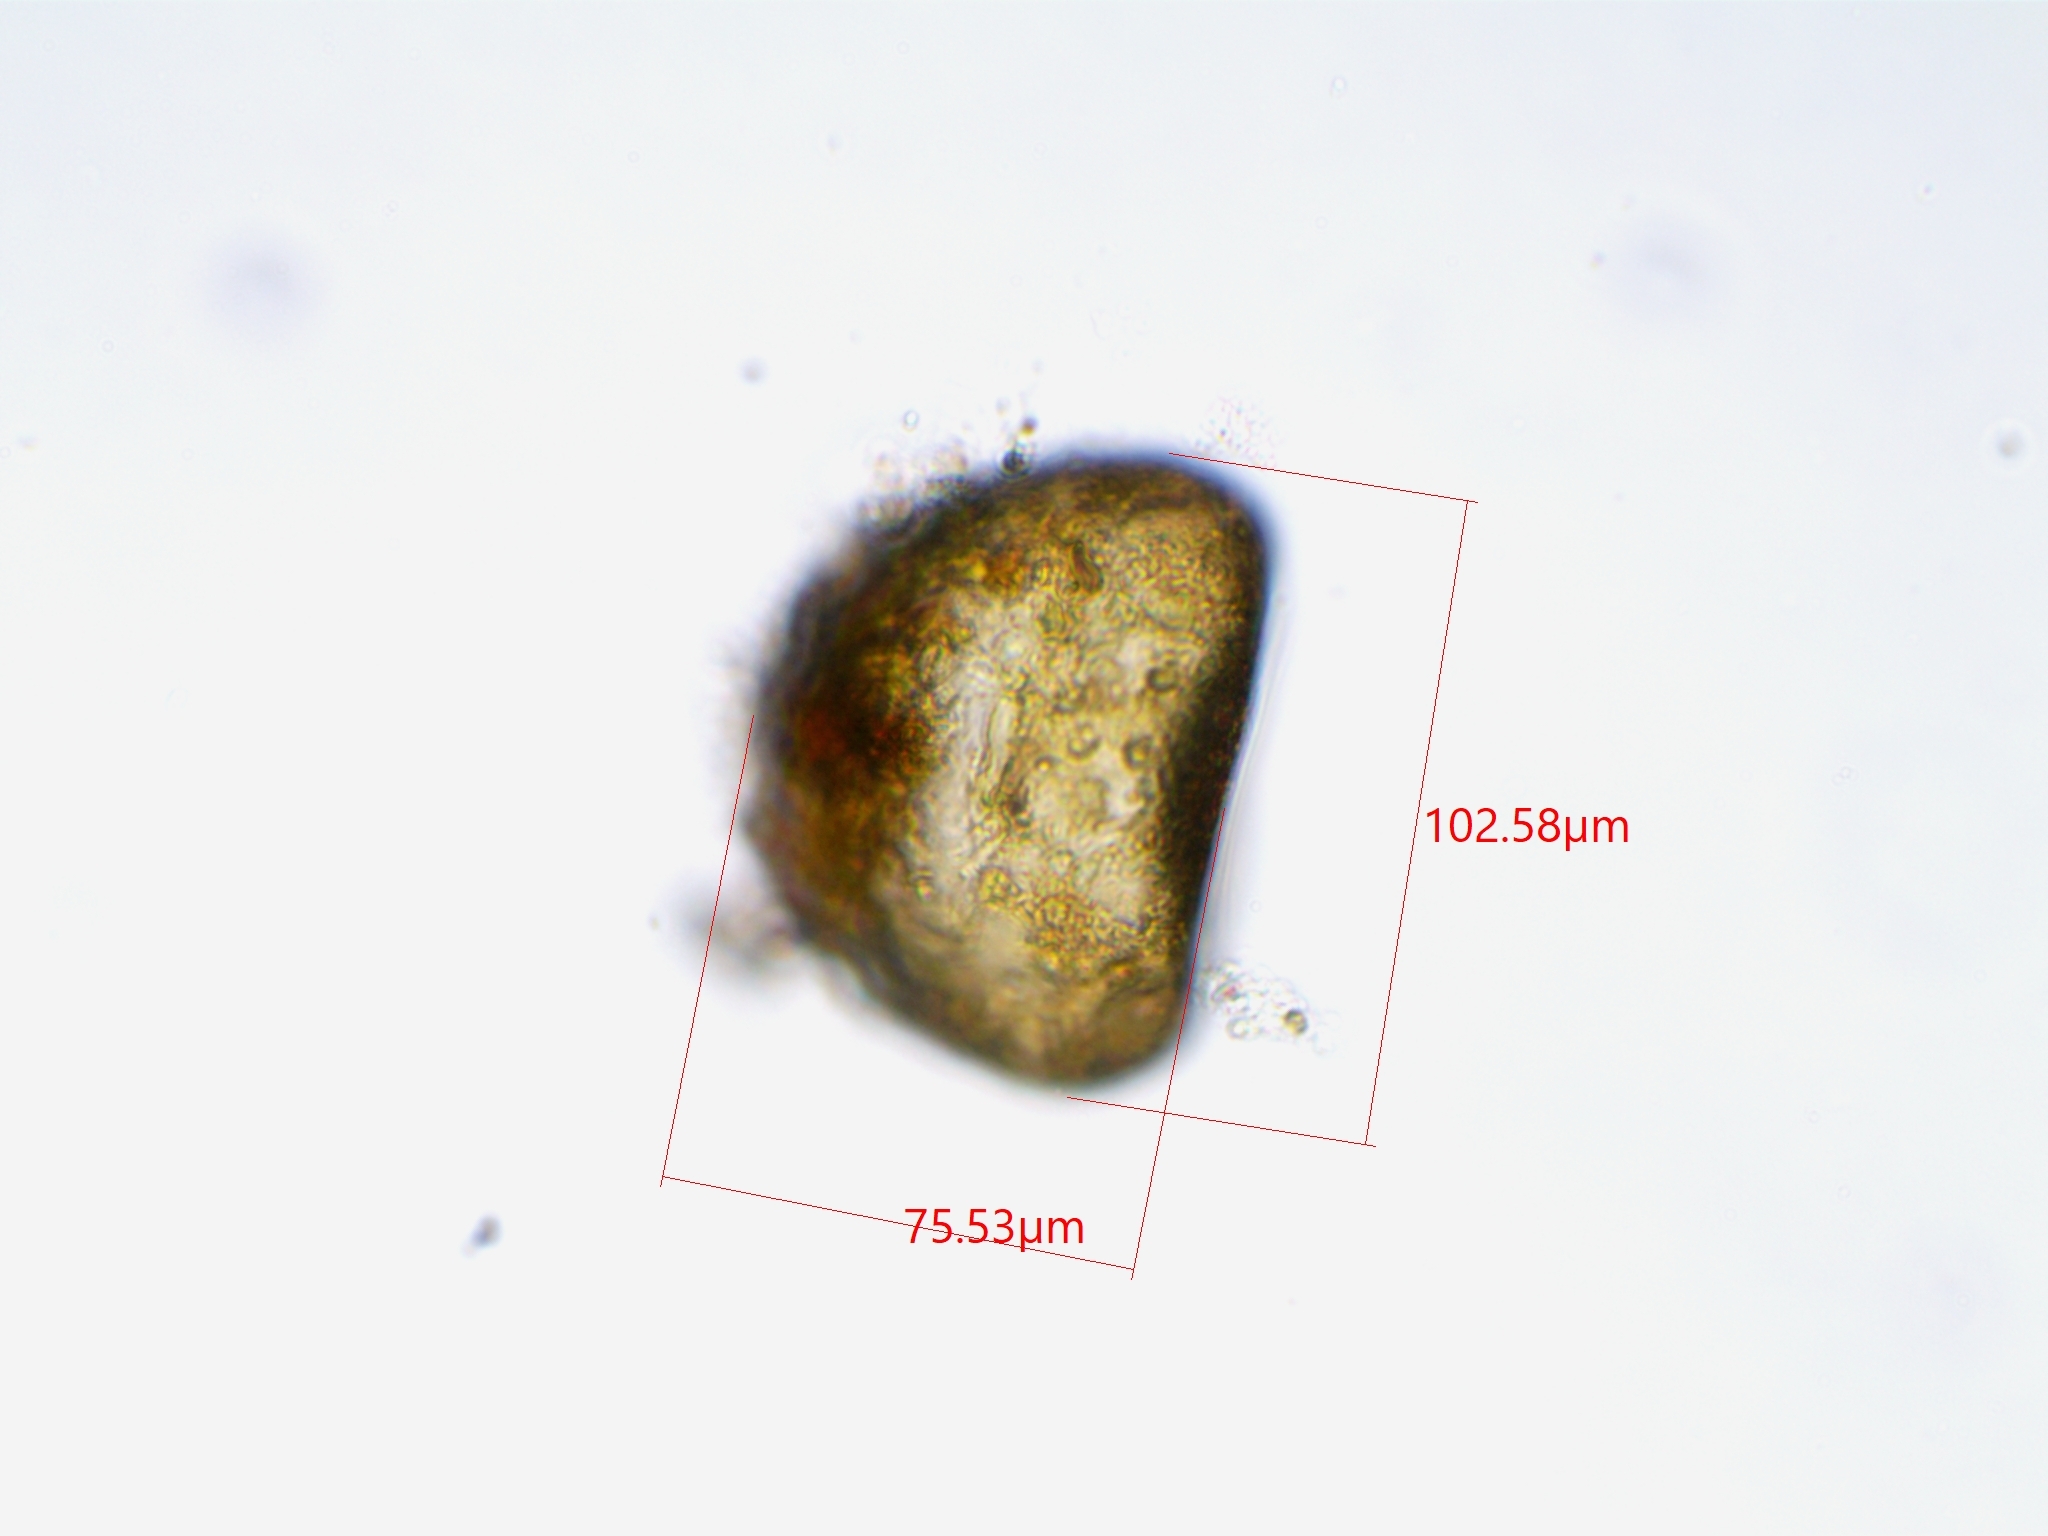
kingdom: Protozoa
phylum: Amoebozoa
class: Lobosa
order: Arcellinida
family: Trigonopyxidae
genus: Trigonopyxis
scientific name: Trigonopyxis arcula
